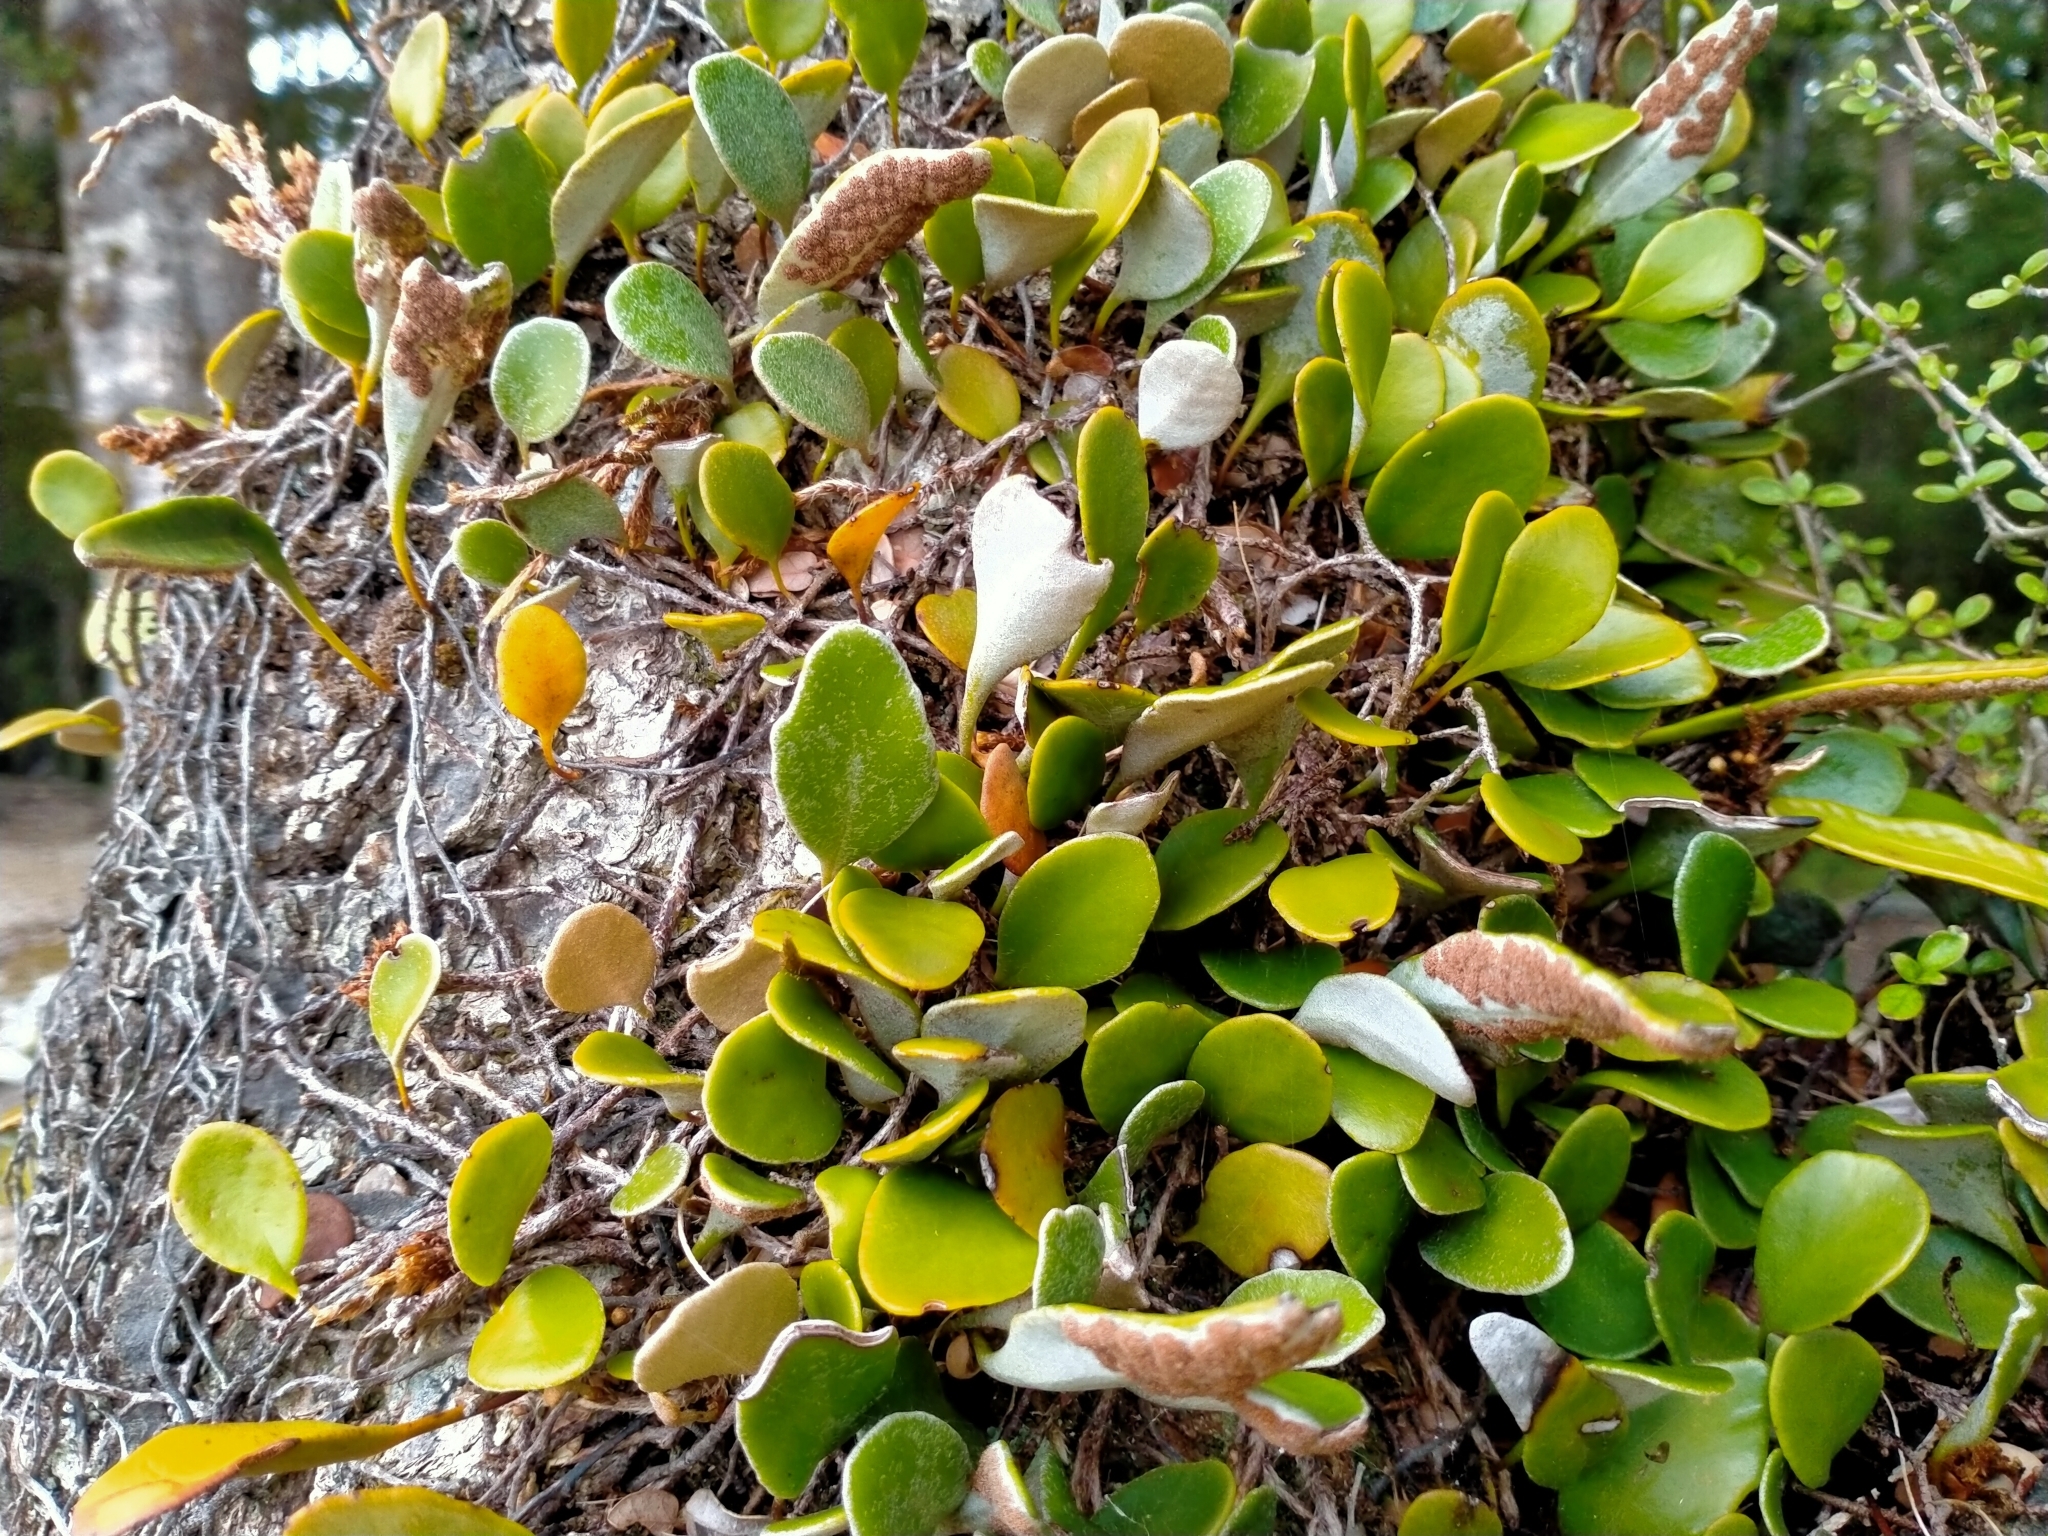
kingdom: Plantae
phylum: Tracheophyta
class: Polypodiopsida
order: Polypodiales
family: Polypodiaceae
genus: Pyrrosia
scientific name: Pyrrosia eleagnifolia
